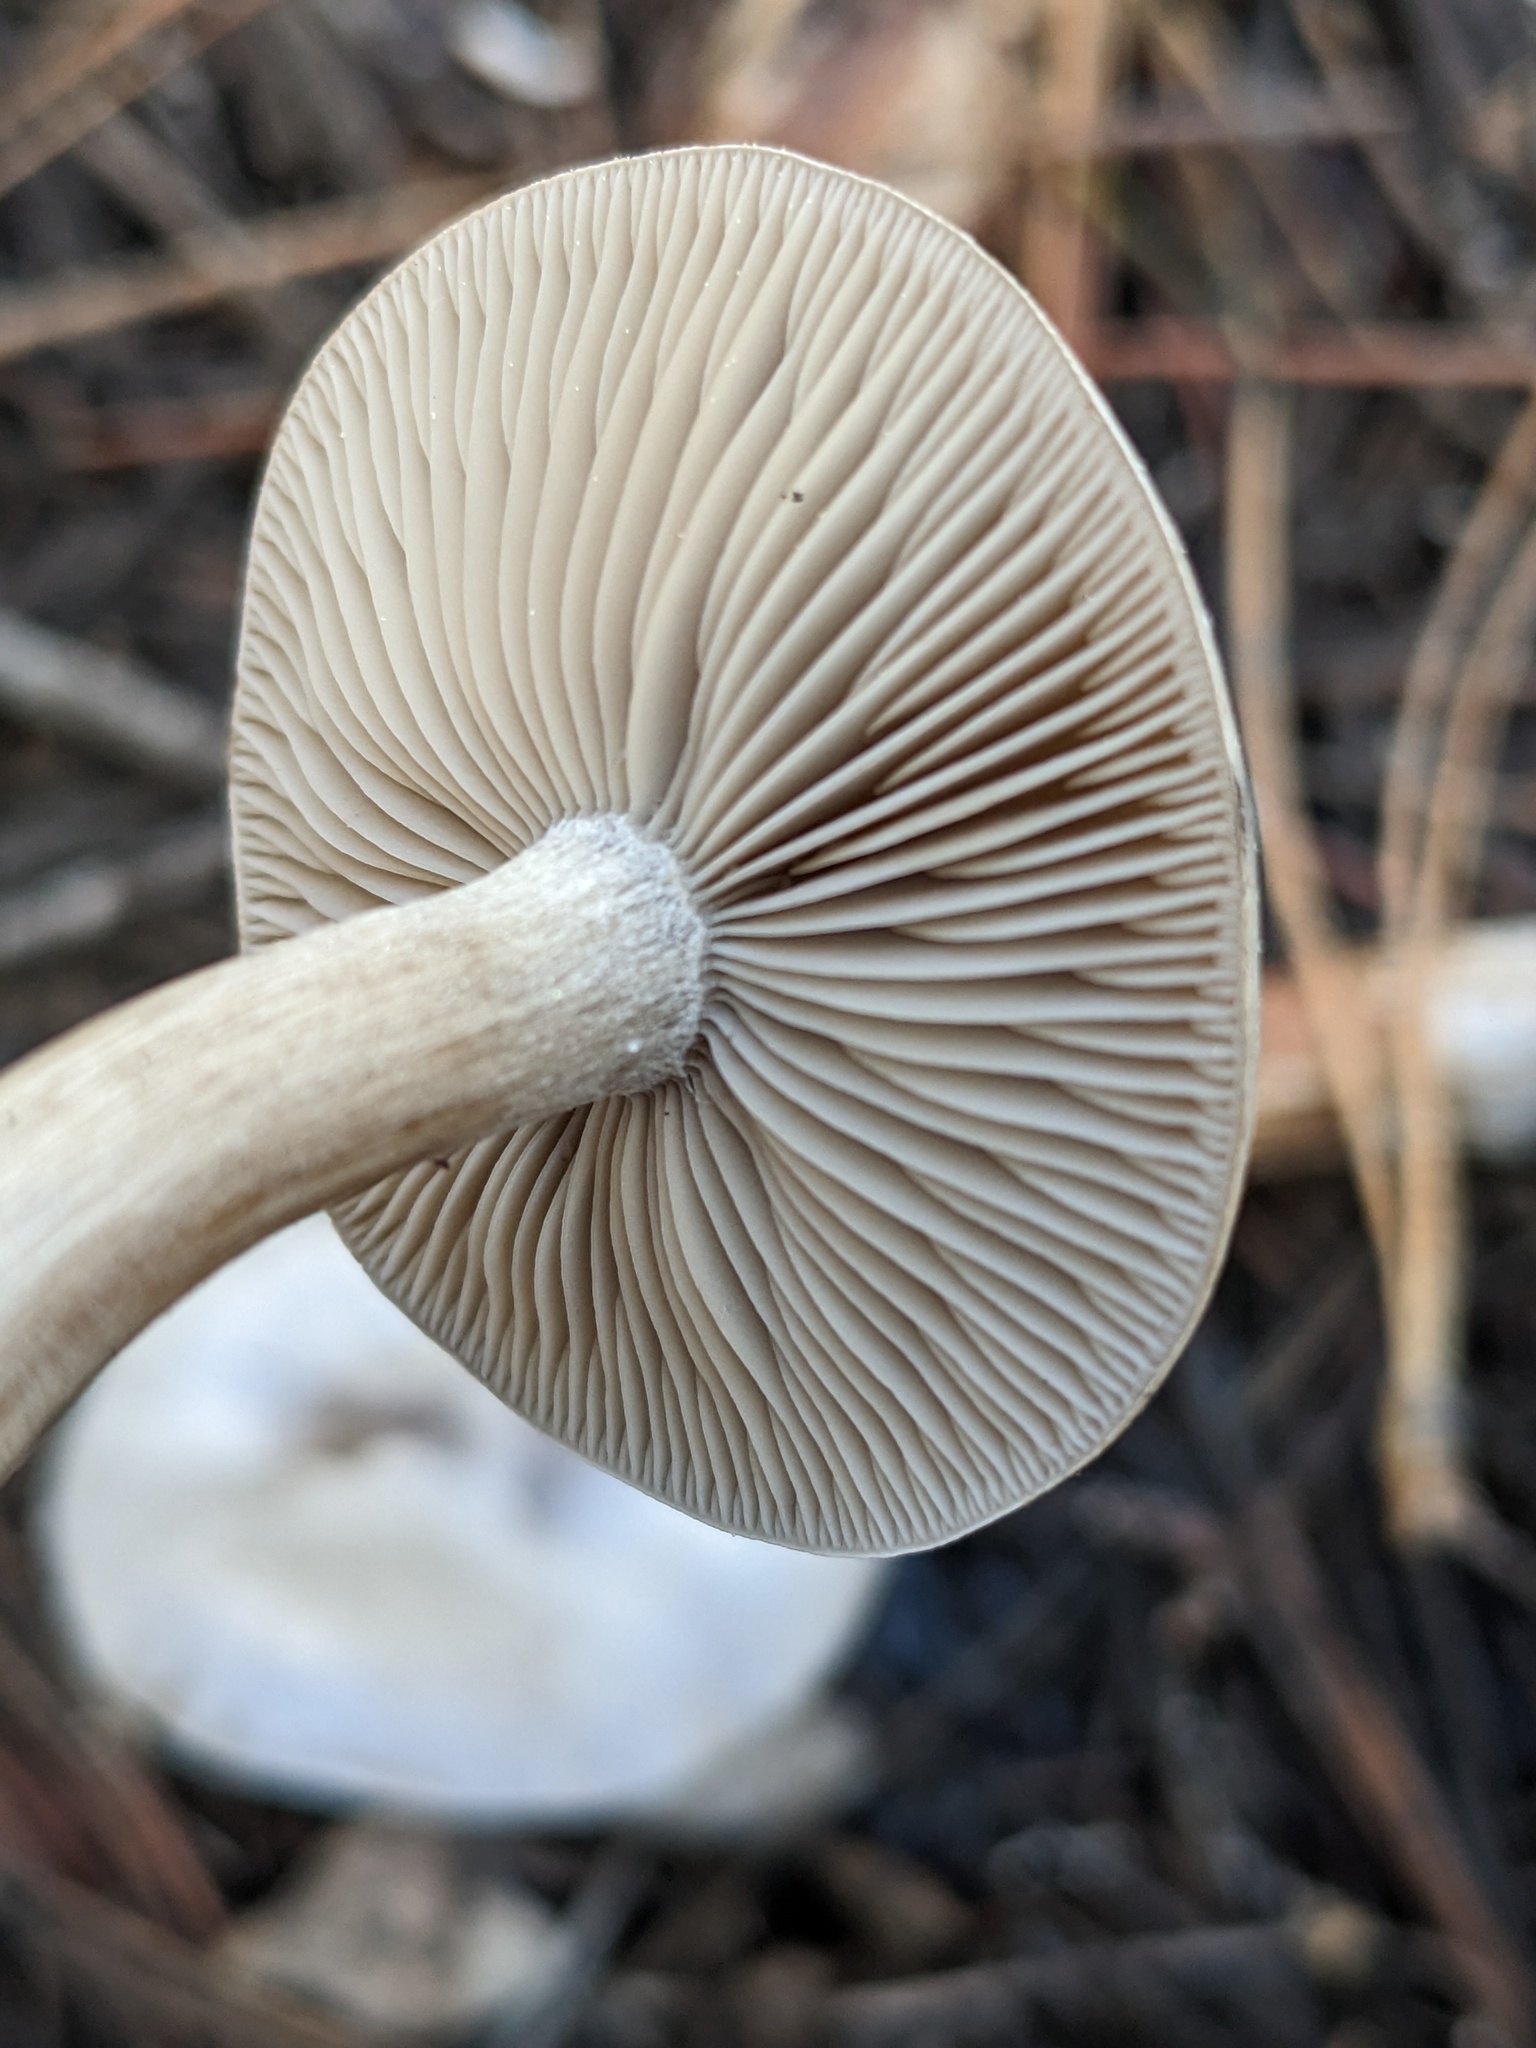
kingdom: Fungi
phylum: Basidiomycota
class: Agaricomycetes
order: Agaricales
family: Tricholomataceae
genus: Clitocybe
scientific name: Clitocybe glacialis
